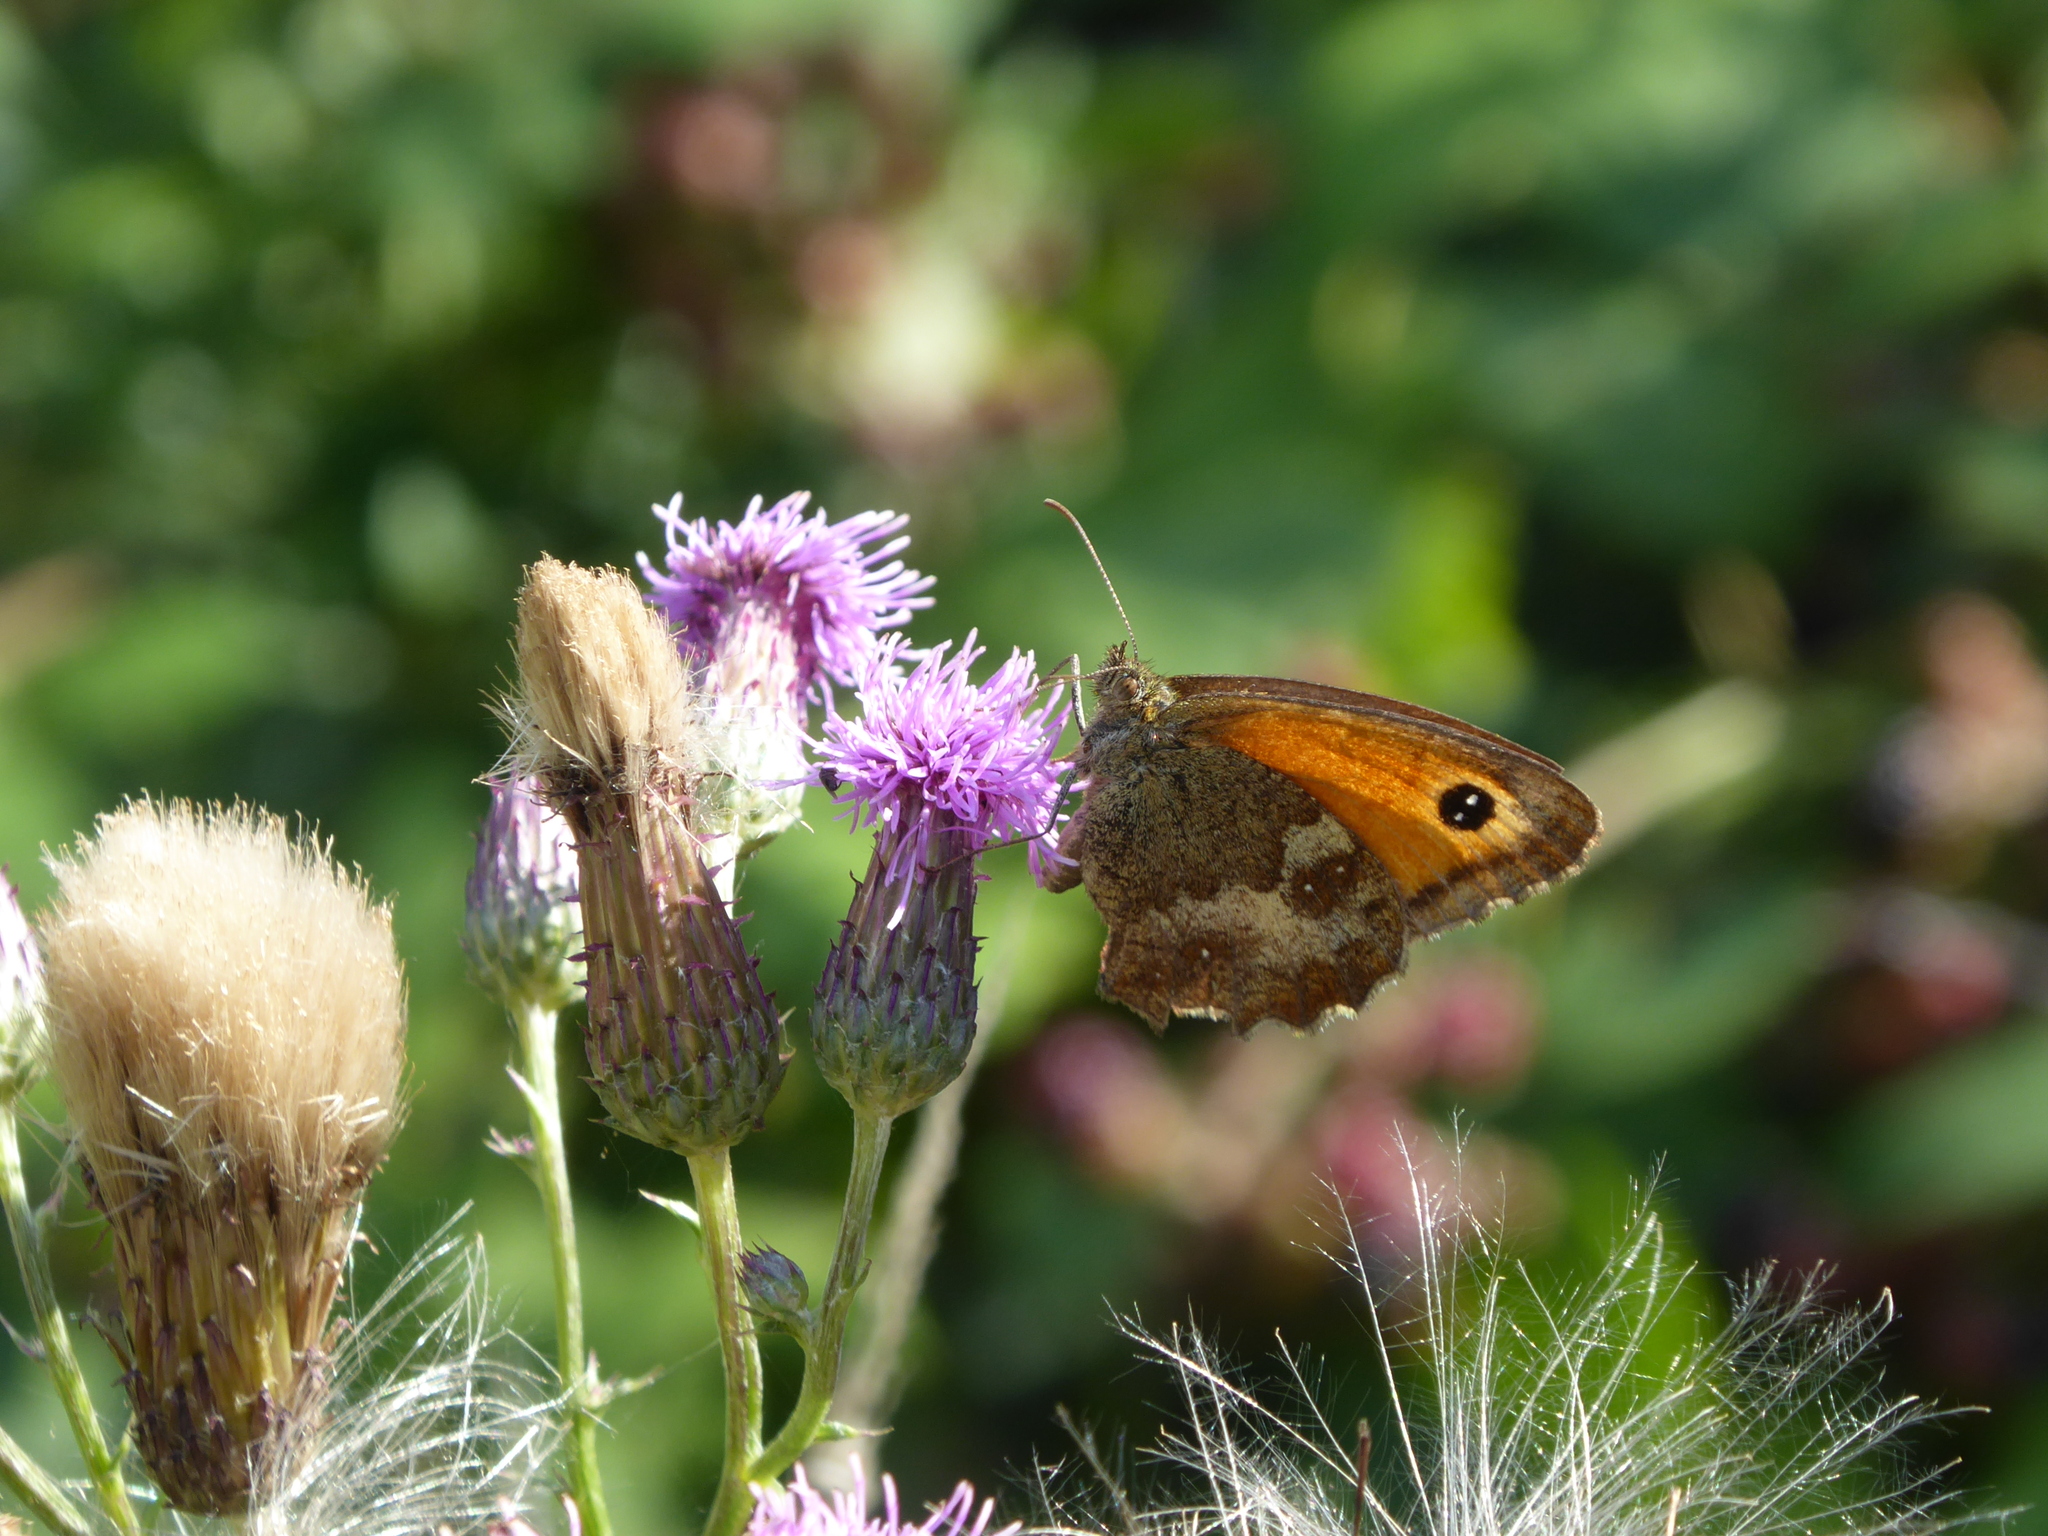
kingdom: Animalia
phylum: Arthropoda
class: Insecta
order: Lepidoptera
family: Nymphalidae
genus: Pyronia
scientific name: Pyronia tithonus
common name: Gatekeeper
